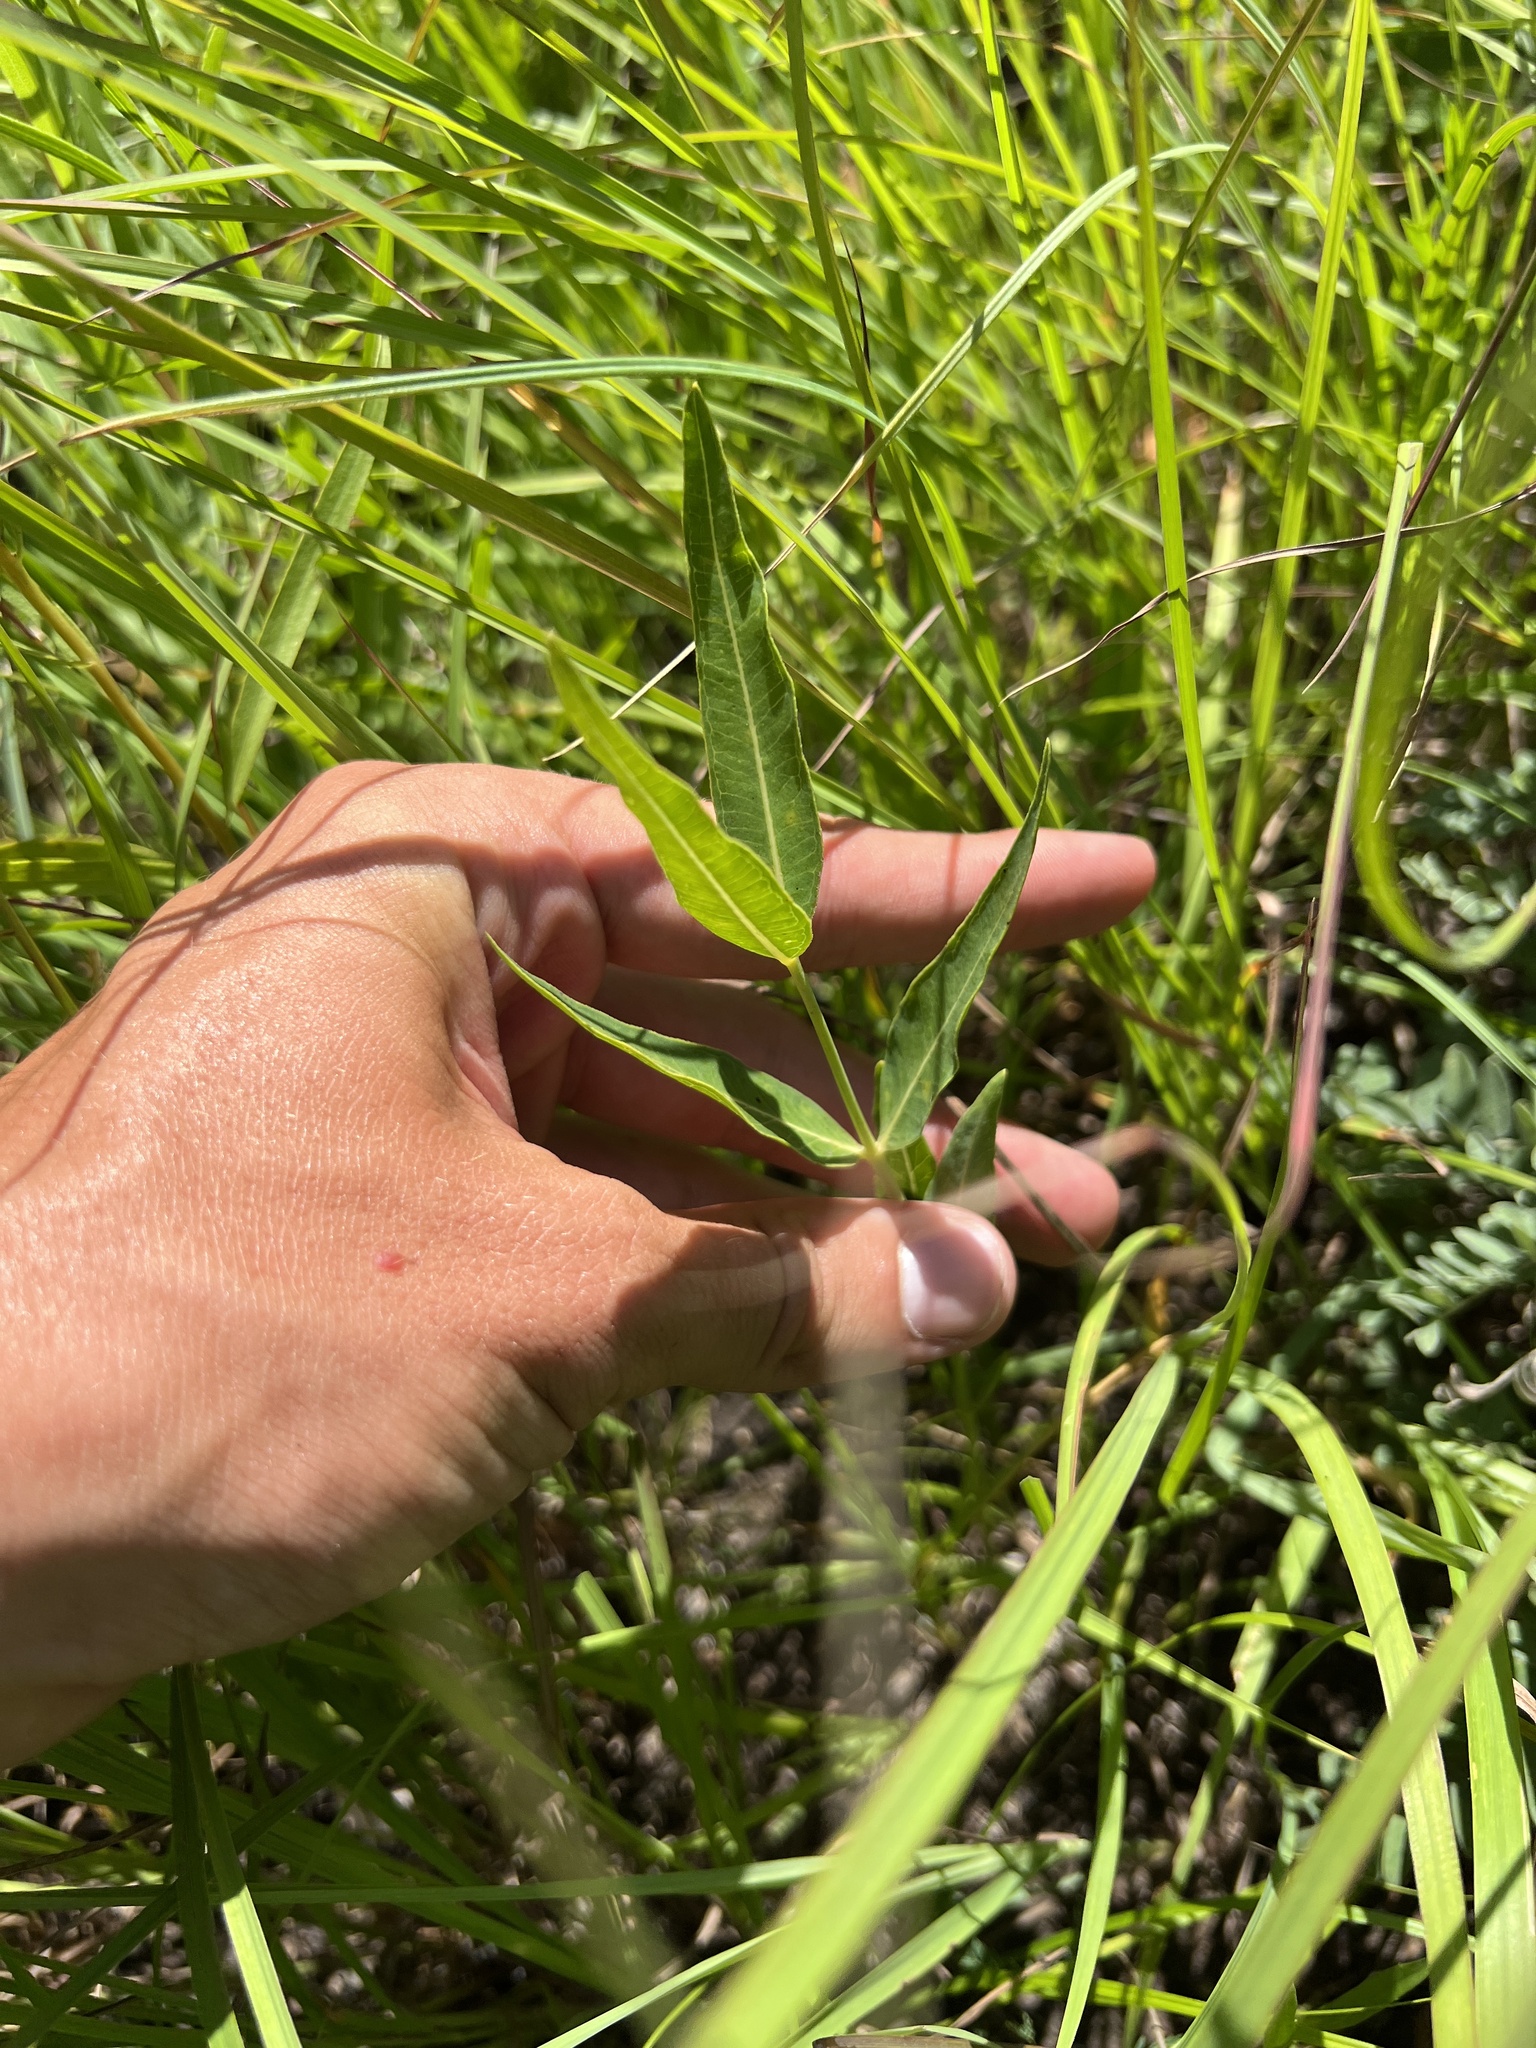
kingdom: Plantae
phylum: Tracheophyta
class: Magnoliopsida
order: Gentianales
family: Apocynaceae
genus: Asclepias
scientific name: Asclepias meadii
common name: Mead's milkweed
